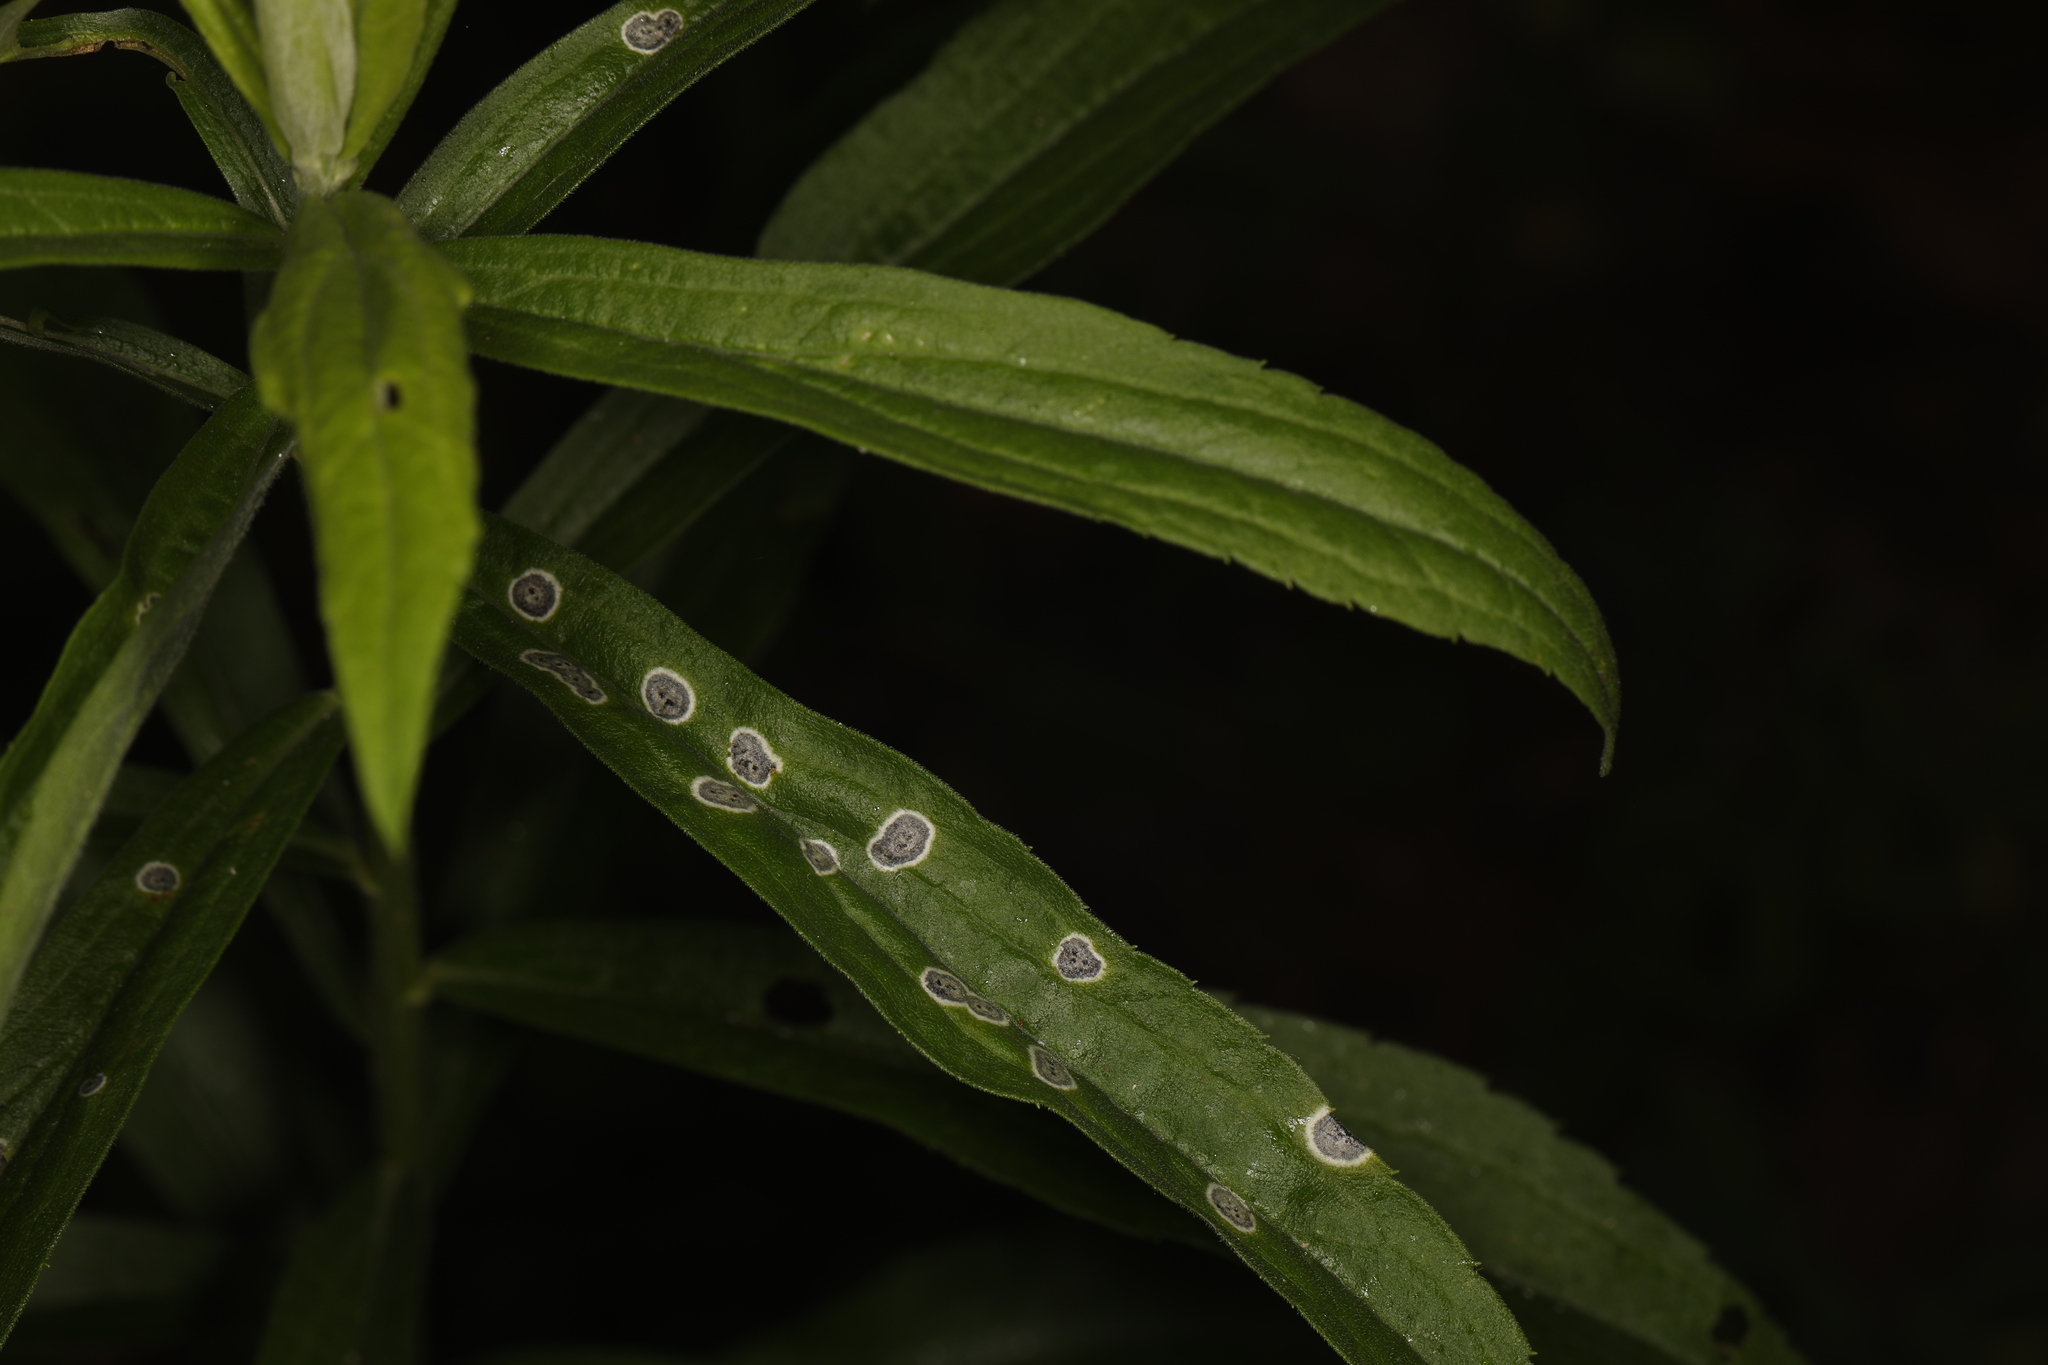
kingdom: Animalia
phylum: Arthropoda
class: Insecta
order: Diptera
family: Cecidomyiidae
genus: Asteromyia
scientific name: Asteromyia carbonifera
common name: Carbonifera goldenrod gall midge
